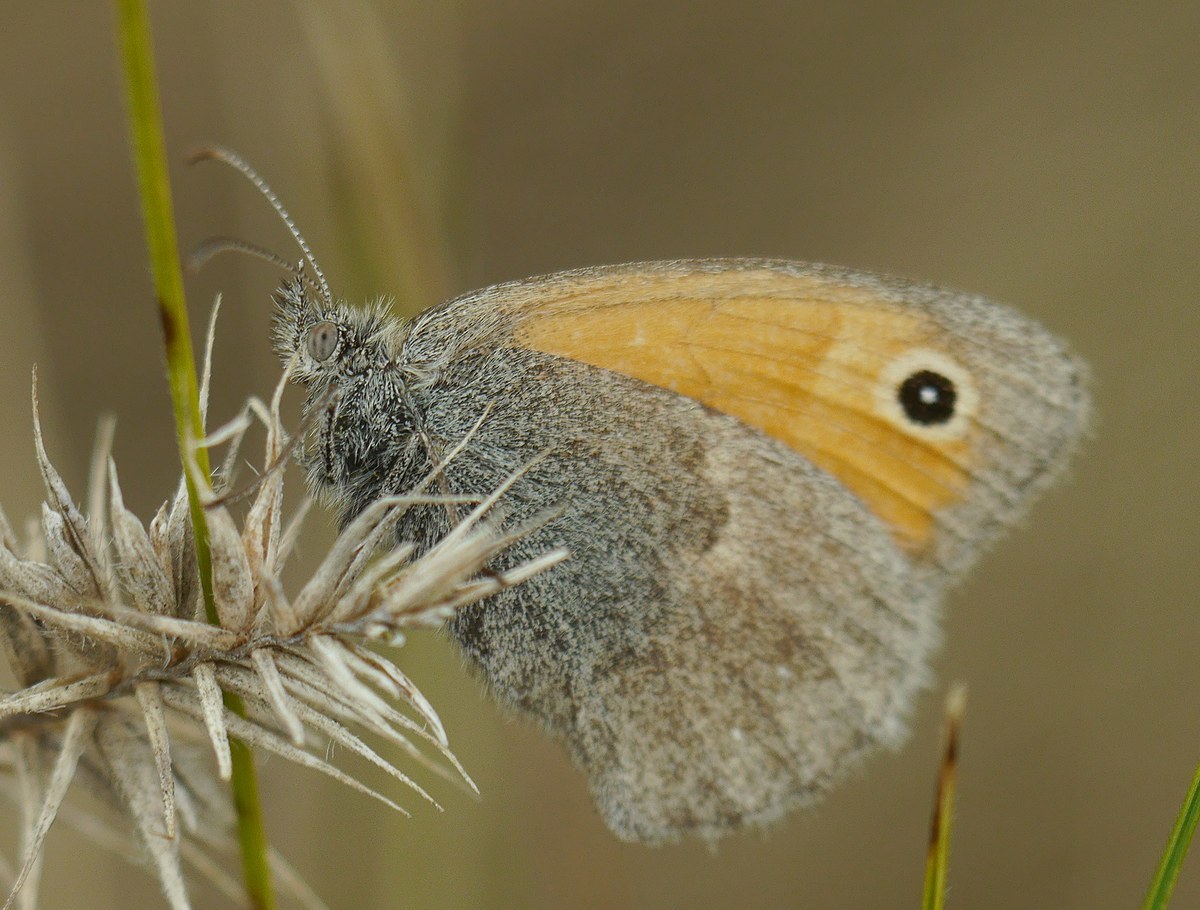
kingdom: Animalia
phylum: Arthropoda
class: Insecta
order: Lepidoptera
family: Nymphalidae
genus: Coenonympha
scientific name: Coenonympha pamphilus
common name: Small heath
